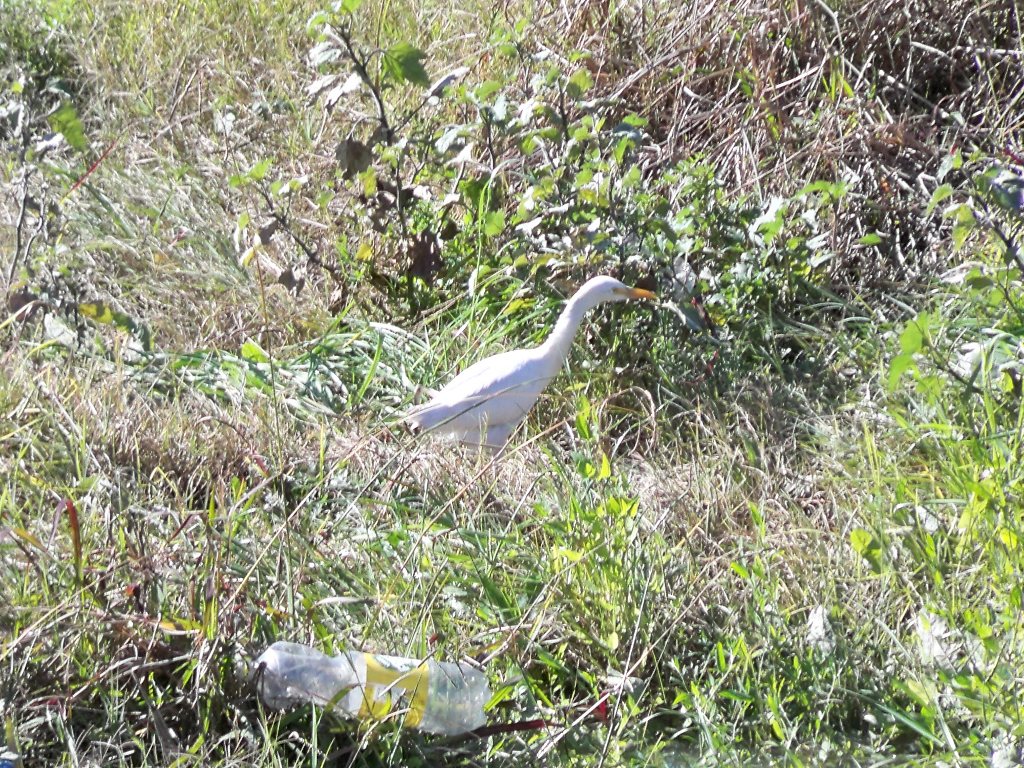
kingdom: Animalia
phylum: Chordata
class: Aves
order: Pelecaniformes
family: Ardeidae
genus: Bubulcus
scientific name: Bubulcus ibis
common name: Cattle egret
